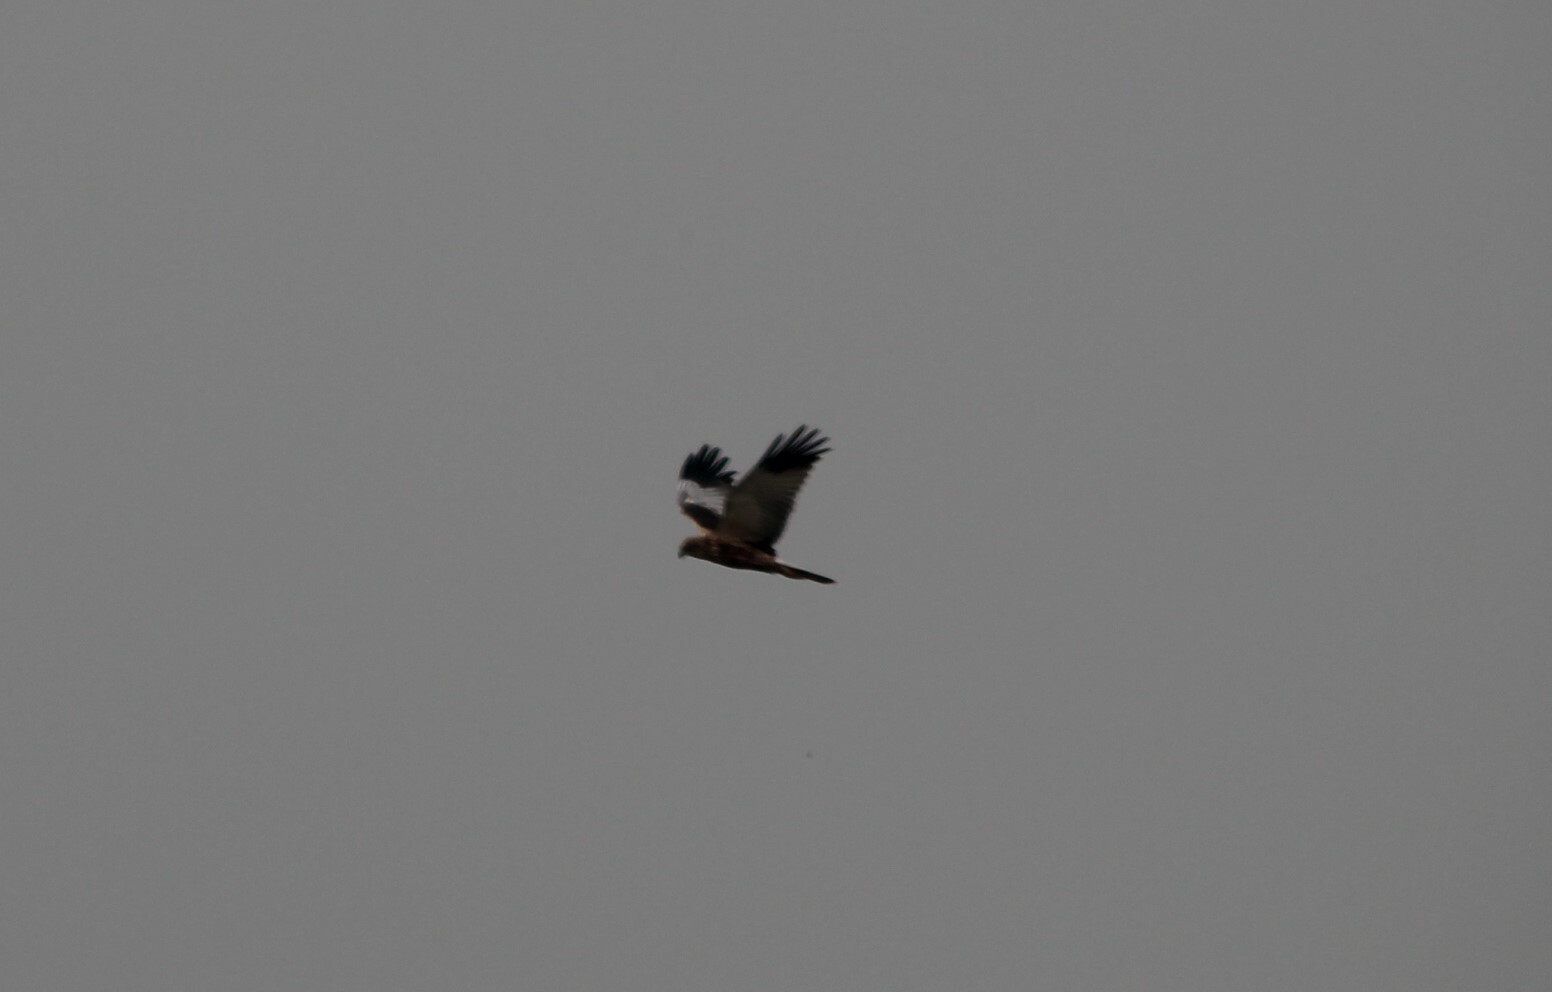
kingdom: Animalia
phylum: Chordata
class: Aves
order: Accipitriformes
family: Accipitridae
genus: Circus
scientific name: Circus aeruginosus
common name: Western marsh harrier
